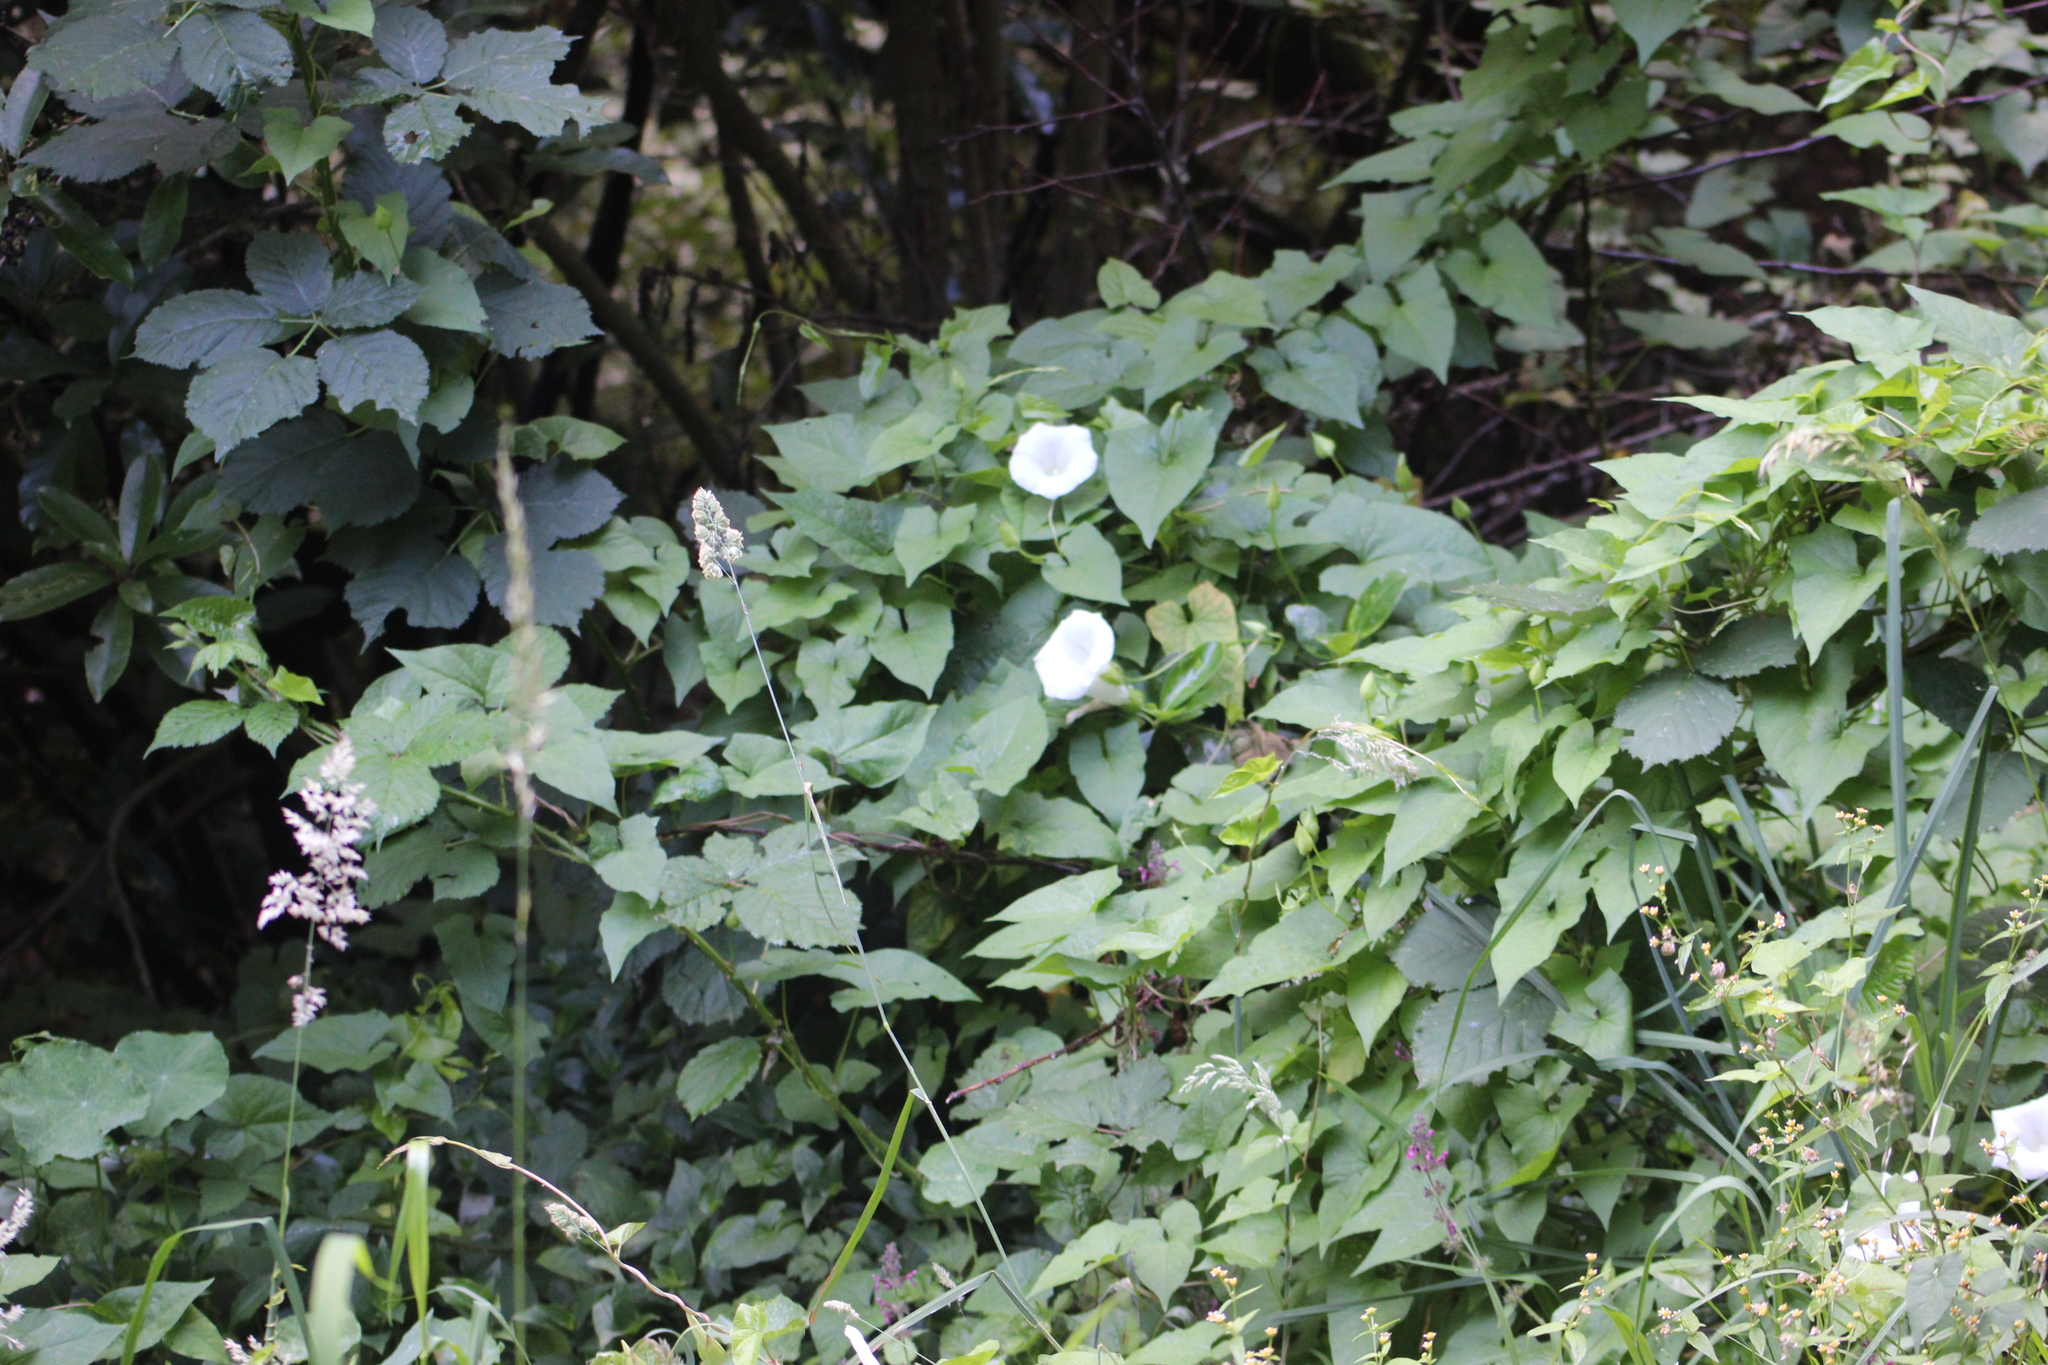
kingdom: Plantae
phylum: Tracheophyta
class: Magnoliopsida
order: Solanales
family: Convolvulaceae
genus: Calystegia
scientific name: Calystegia silvatica
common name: Large bindweed
